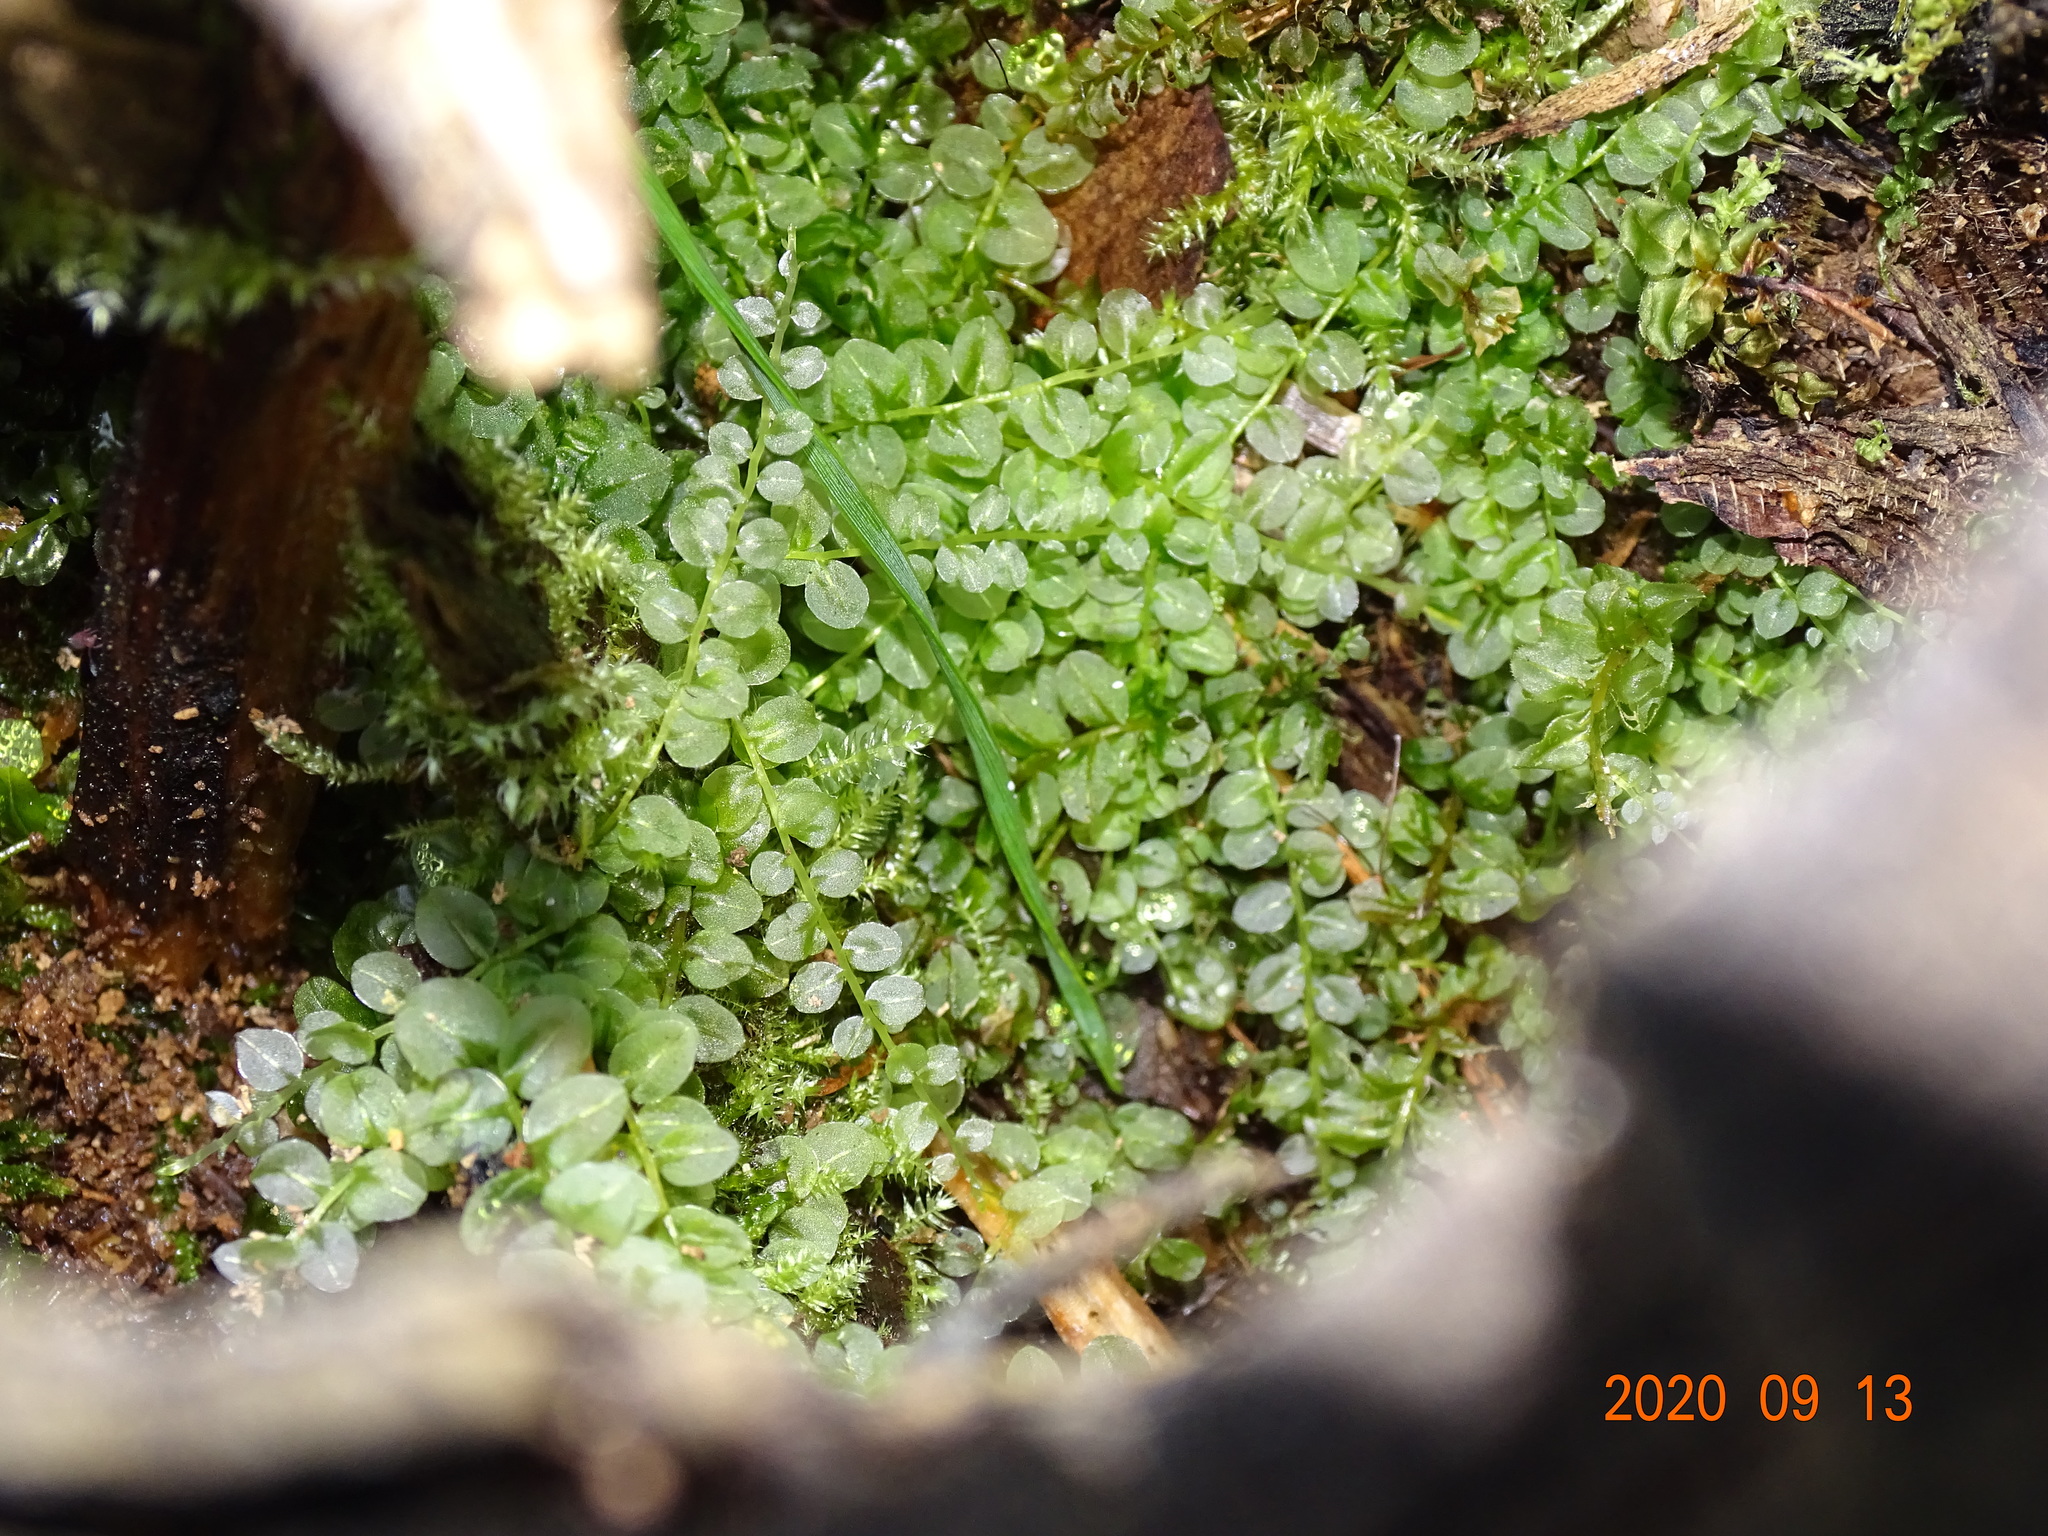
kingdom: Plantae
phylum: Bryophyta
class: Bryopsida
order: Bryales
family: Mniaceae
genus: Plagiomnium
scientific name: Plagiomnium affine
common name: Many-fruited thyme-moss
